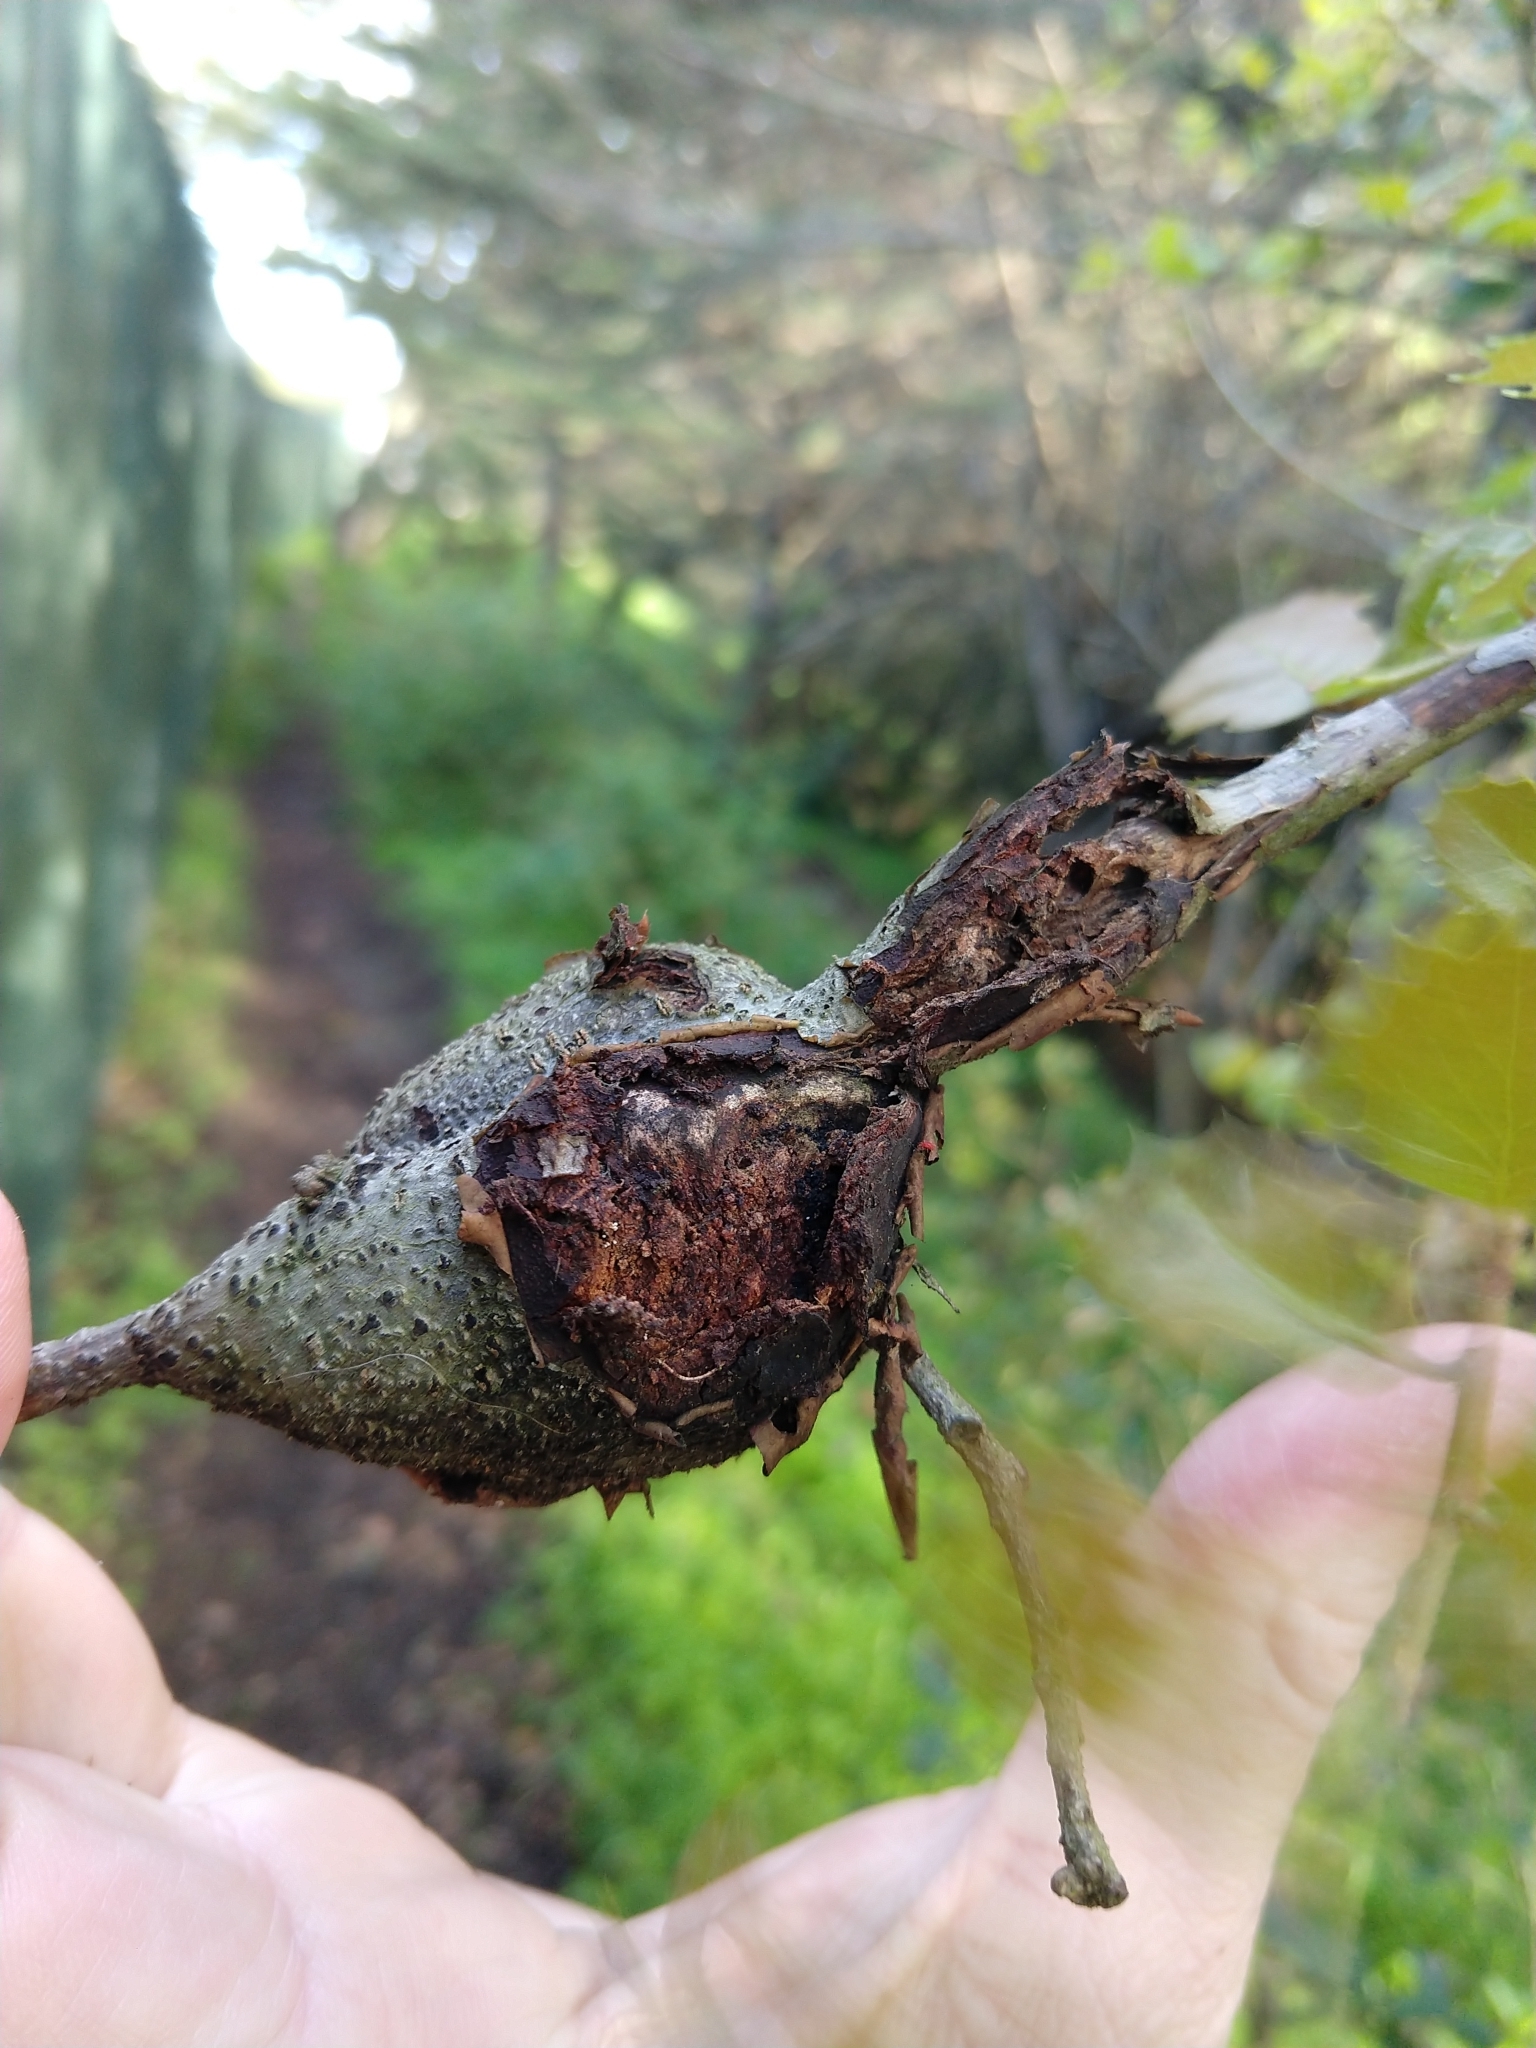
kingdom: Animalia
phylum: Arthropoda
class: Insecta
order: Hymenoptera
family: Cynipidae
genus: Callirhytis
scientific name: Callirhytis
